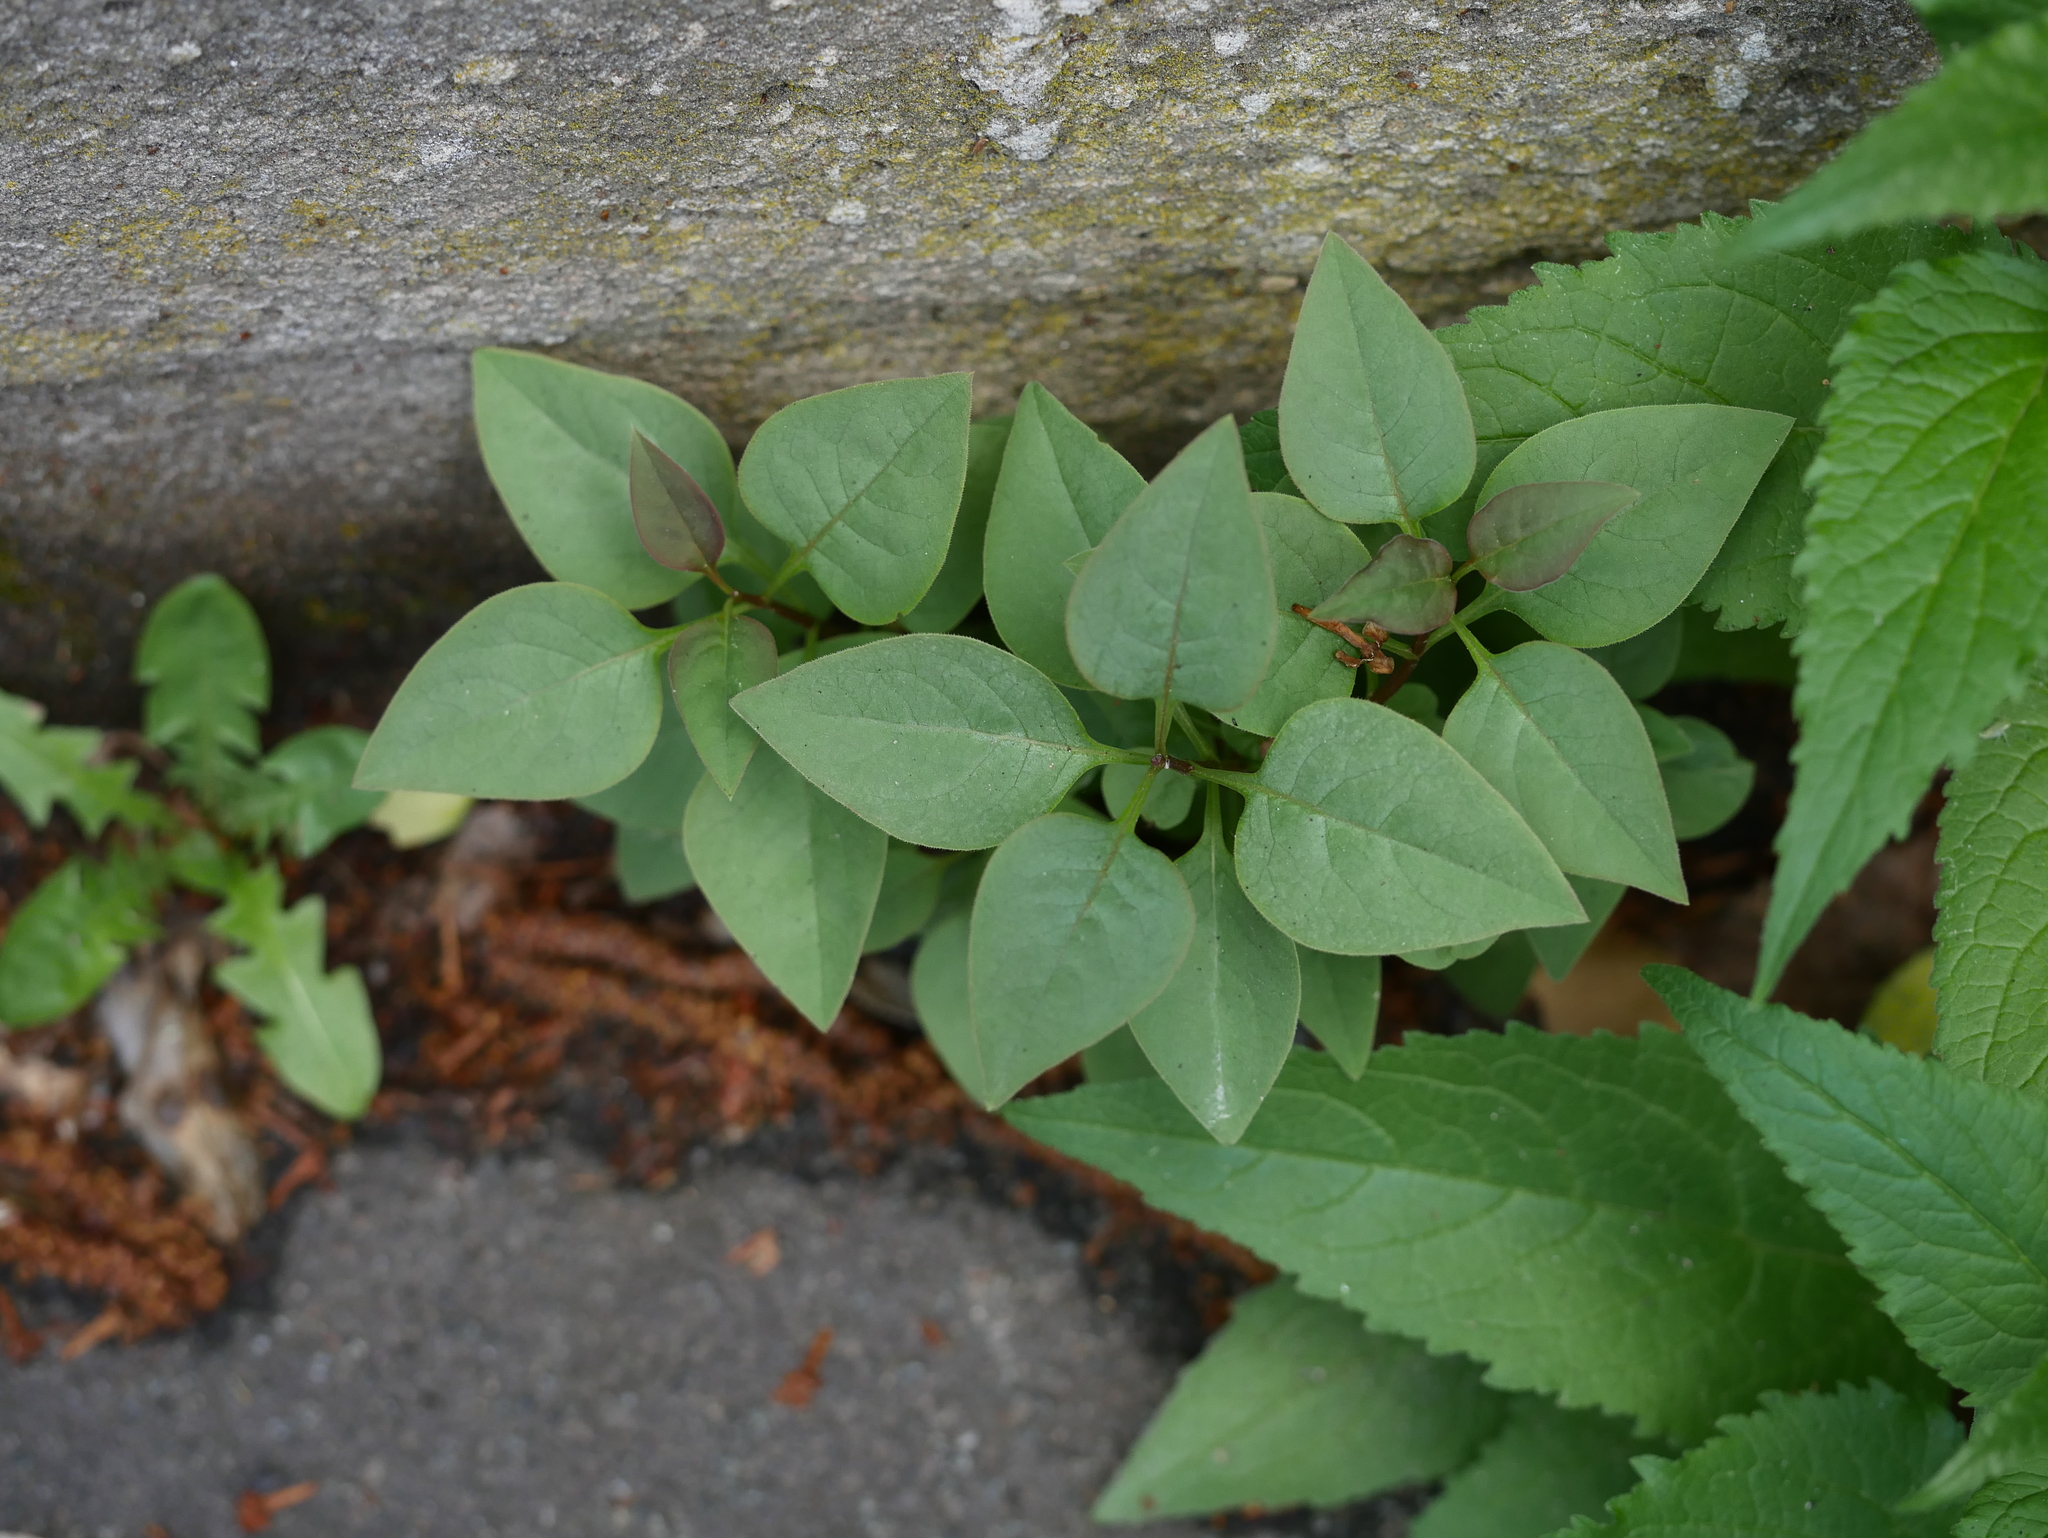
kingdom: Plantae
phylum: Tracheophyta
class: Magnoliopsida
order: Lamiales
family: Oleaceae
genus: Syringa
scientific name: Syringa vulgaris
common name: Common lilac
